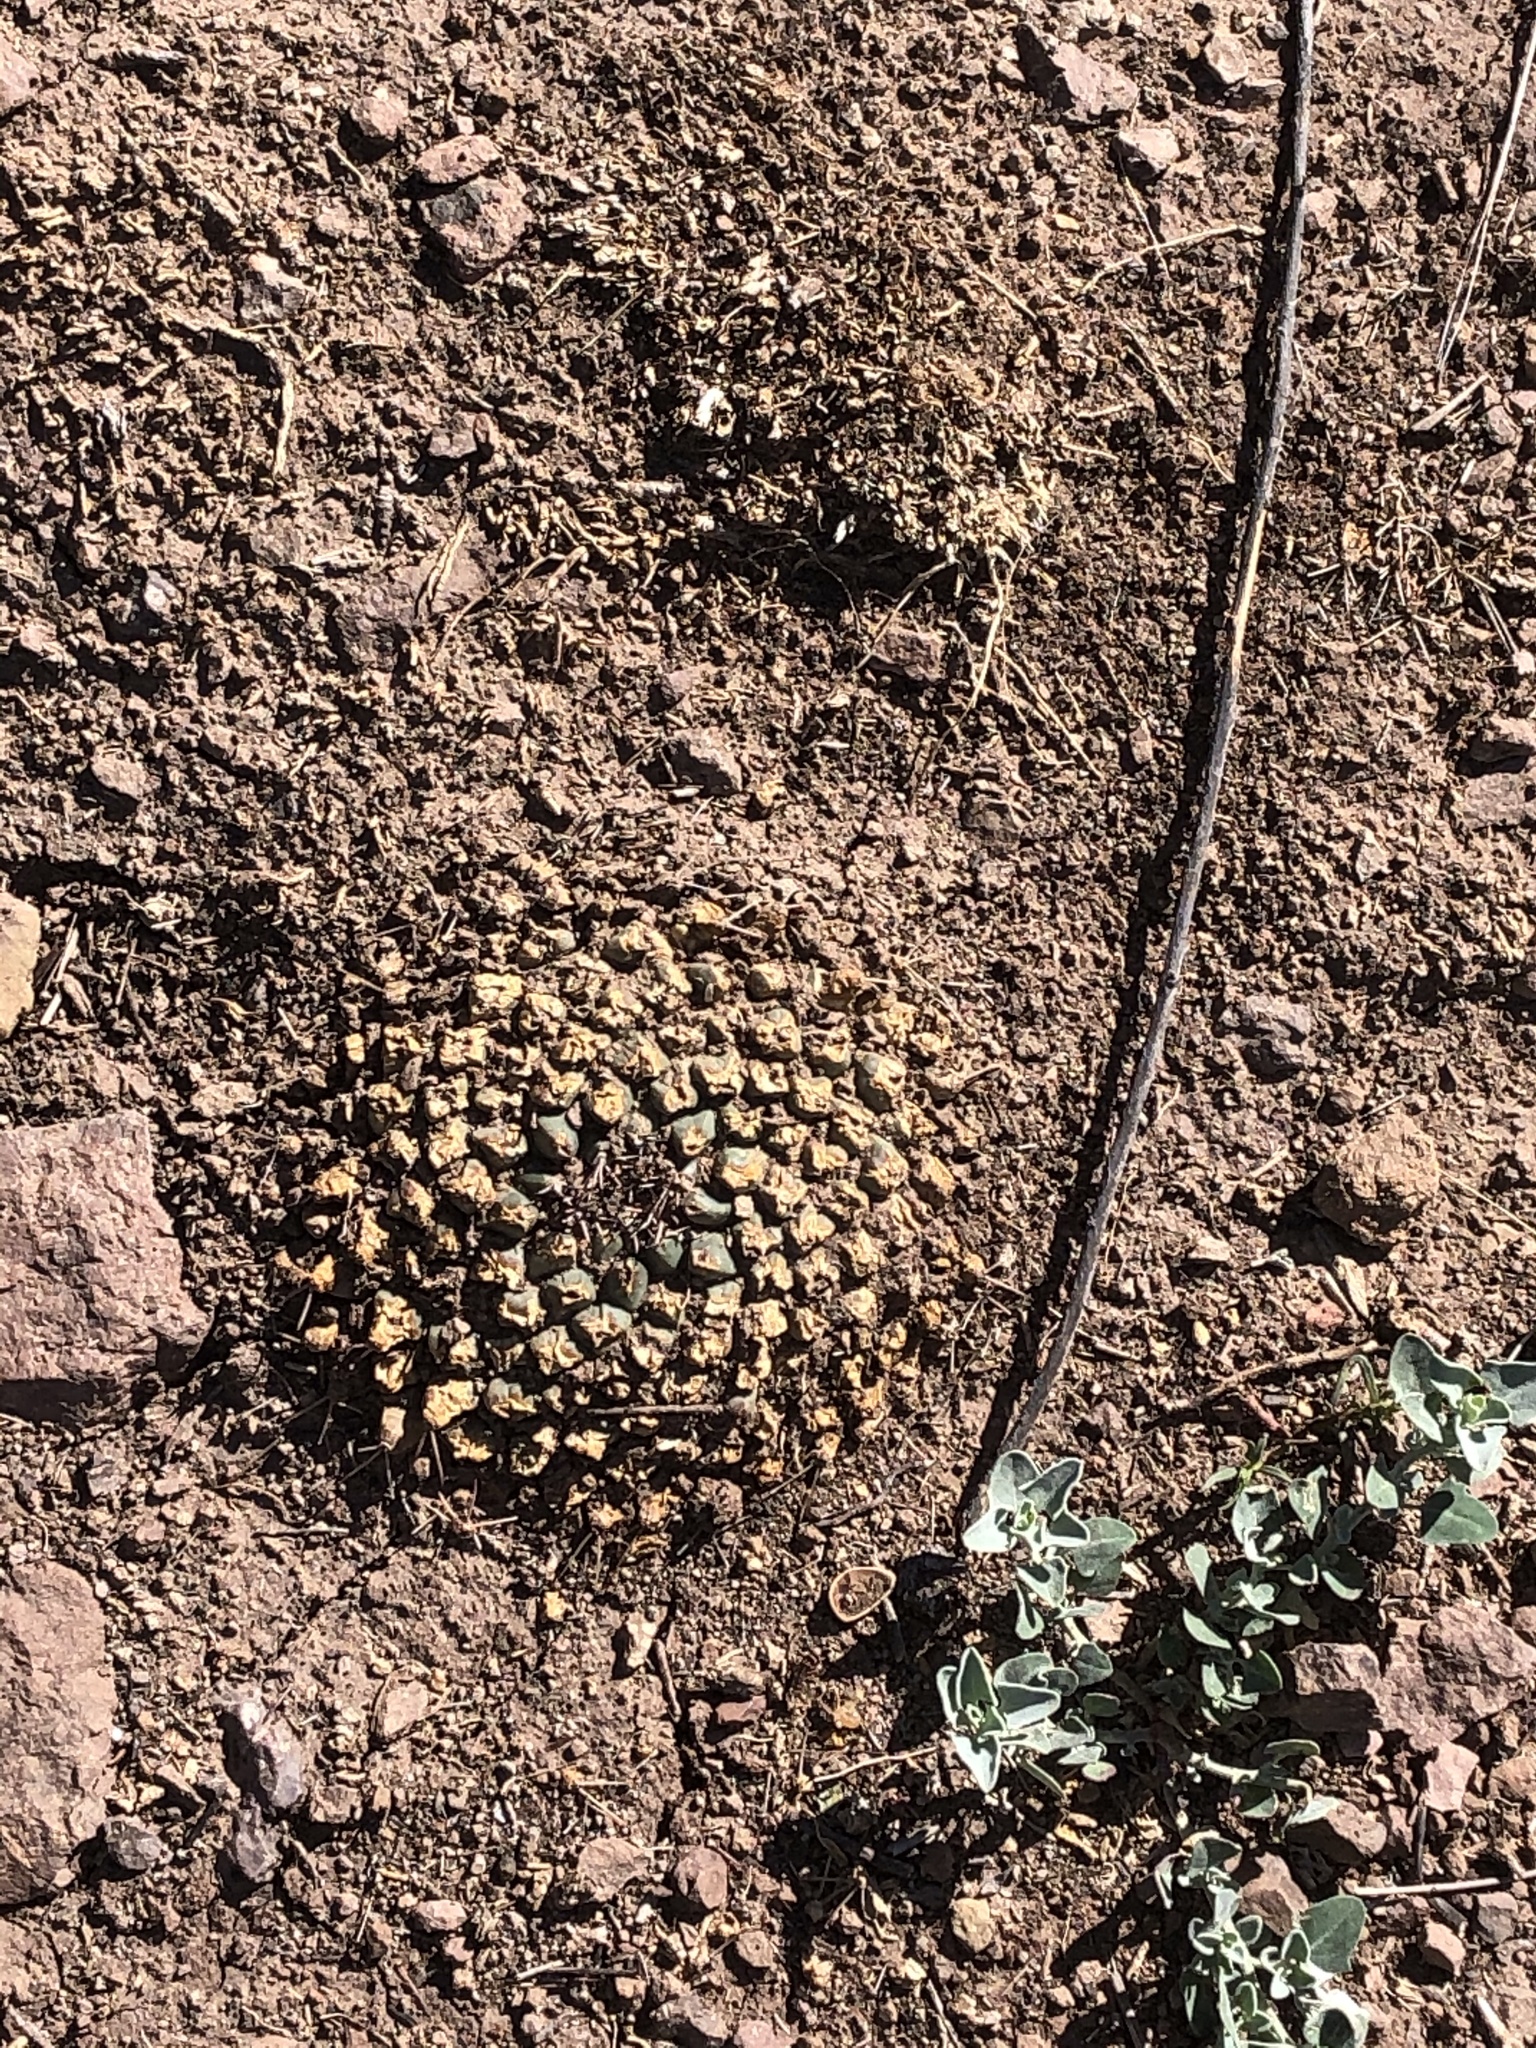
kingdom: Plantae
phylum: Tracheophyta
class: Magnoliopsida
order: Caryophyllales
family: Cactaceae
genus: Mammillaria
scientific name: Mammillaria heyderi
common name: Little nipple cactus
